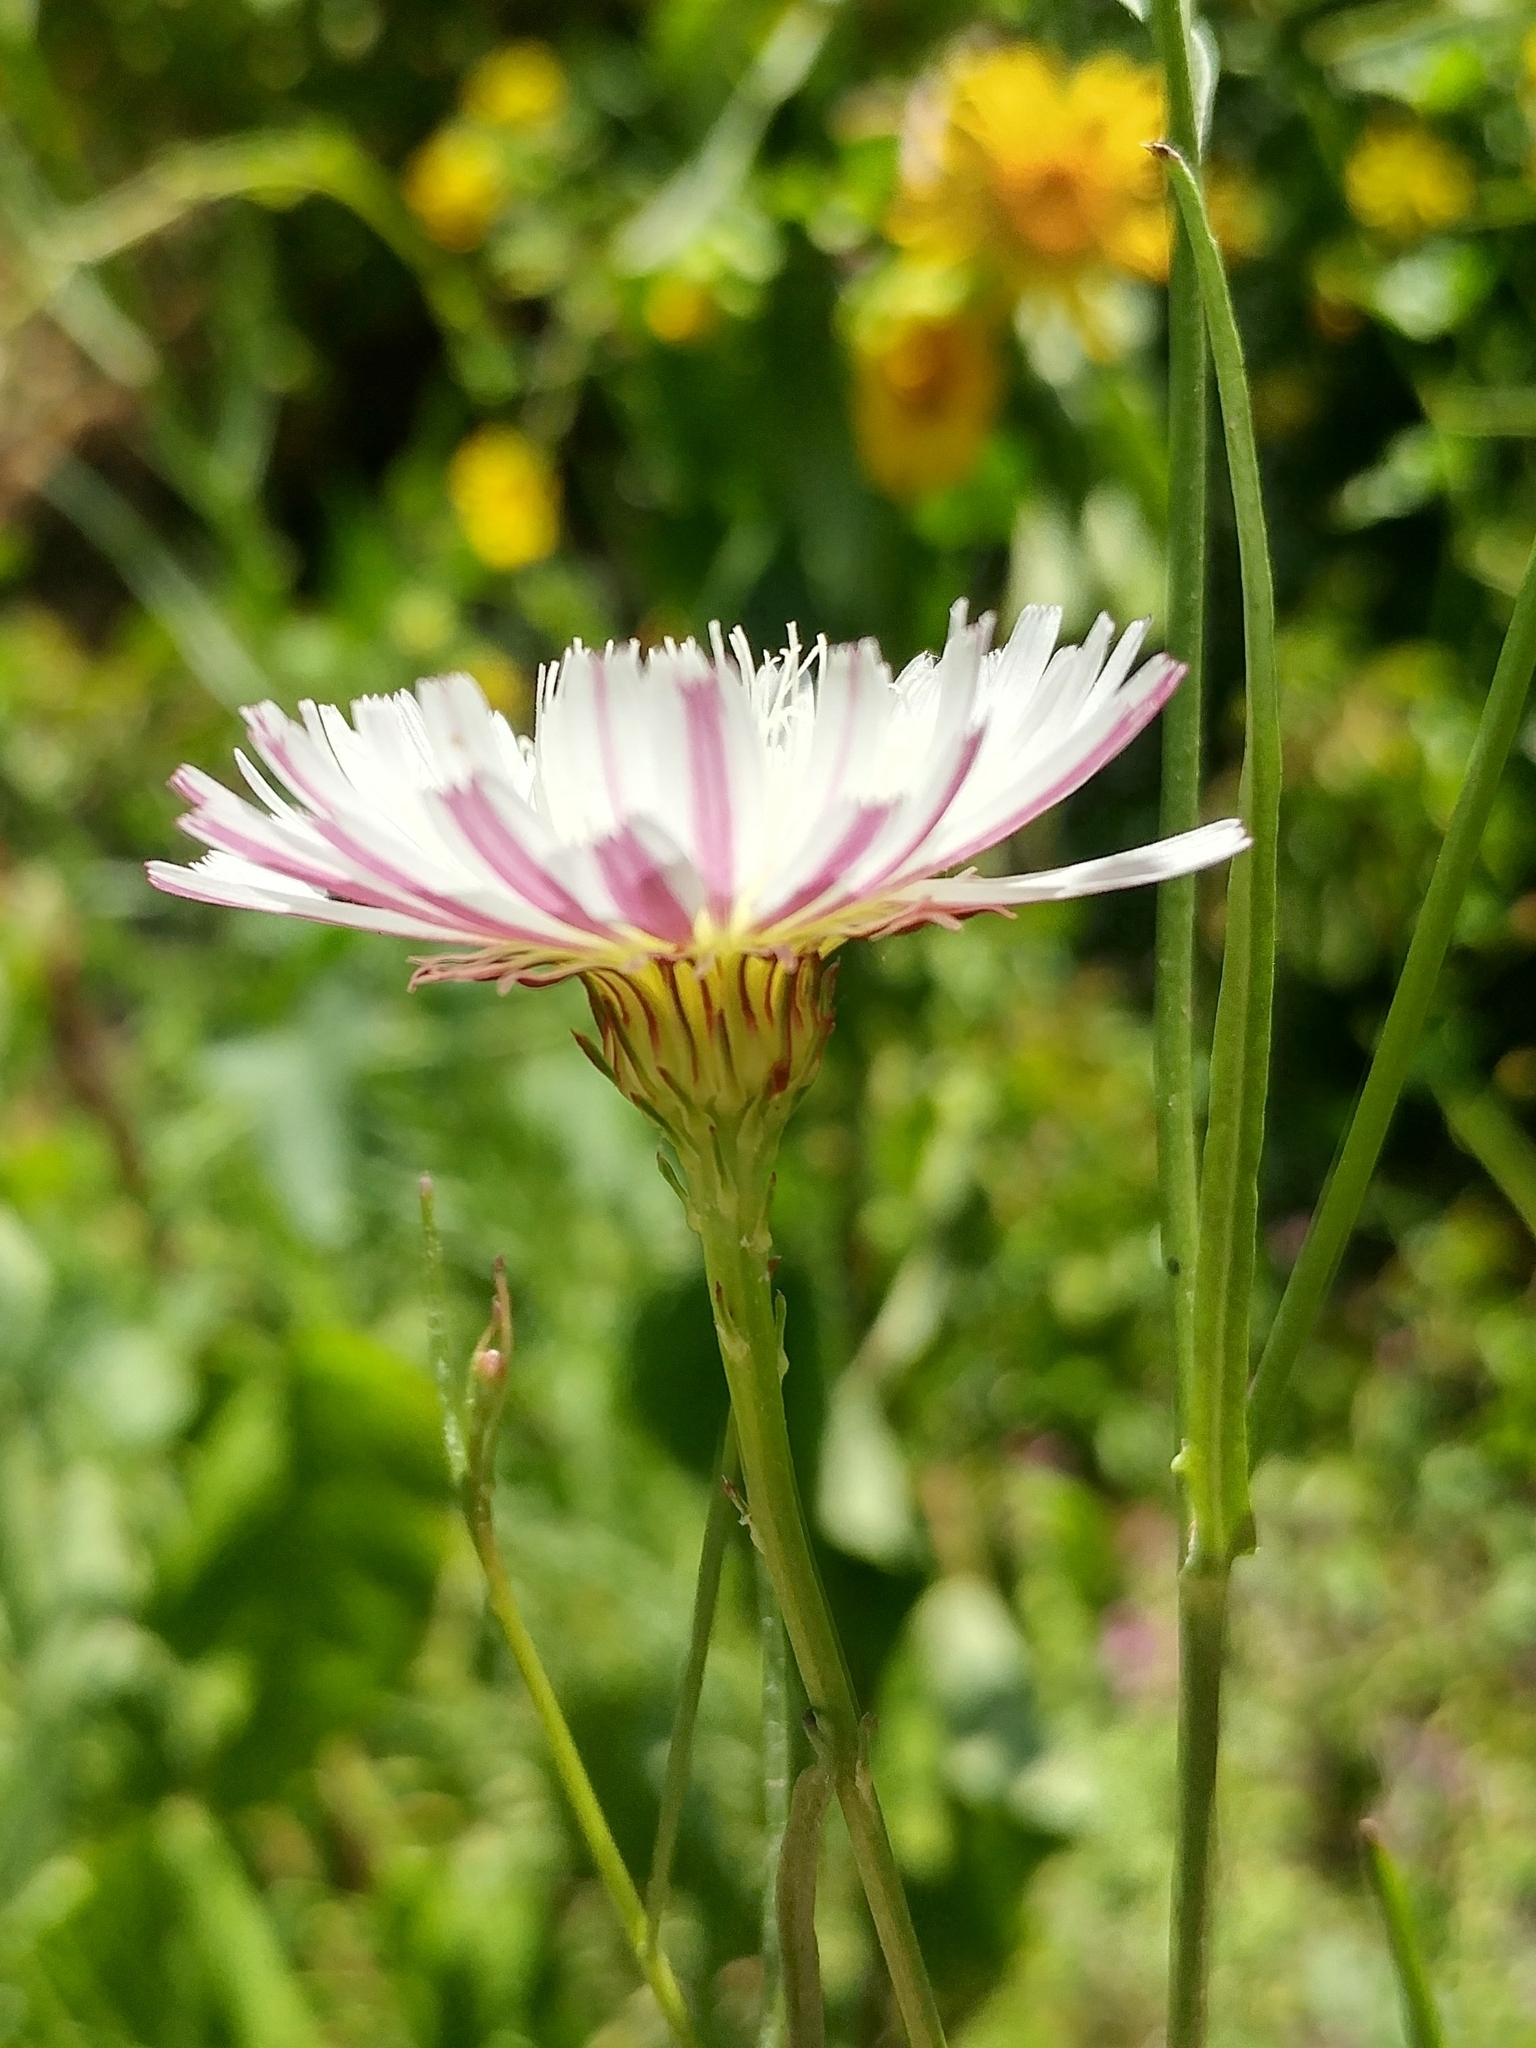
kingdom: Plantae
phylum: Tracheophyta
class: Magnoliopsida
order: Asterales
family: Asteraceae
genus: Malacothrix
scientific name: Malacothrix saxatilis
